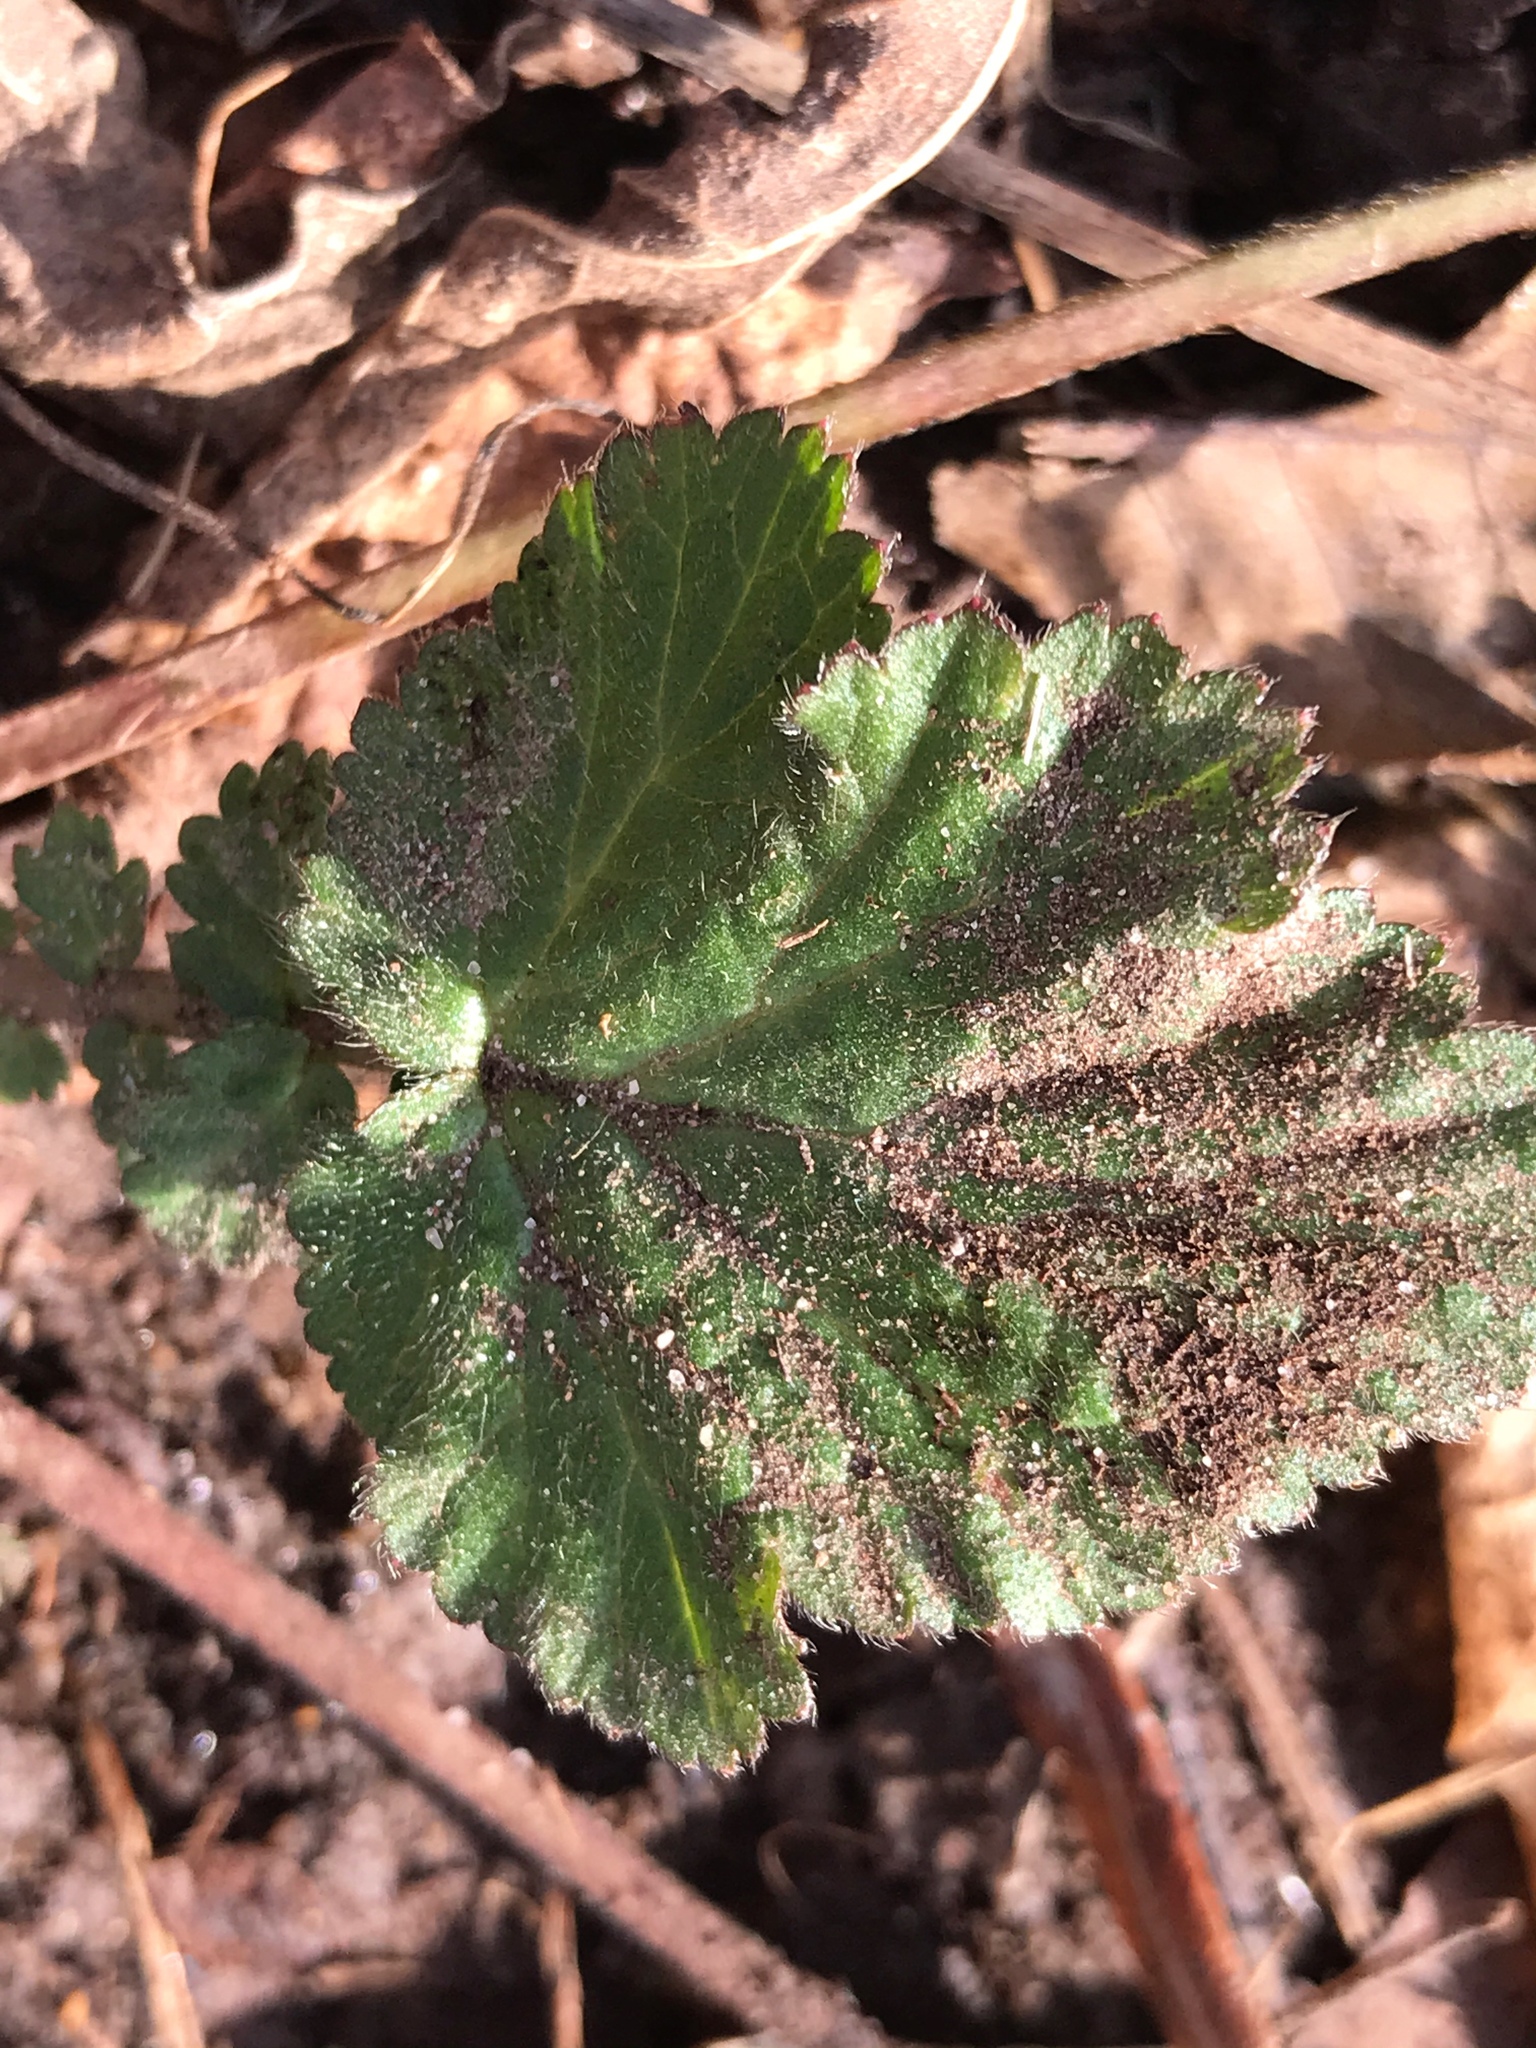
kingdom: Plantae
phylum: Tracheophyta
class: Magnoliopsida
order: Rosales
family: Rosaceae
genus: Geum
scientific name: Geum canadense
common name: White avens
